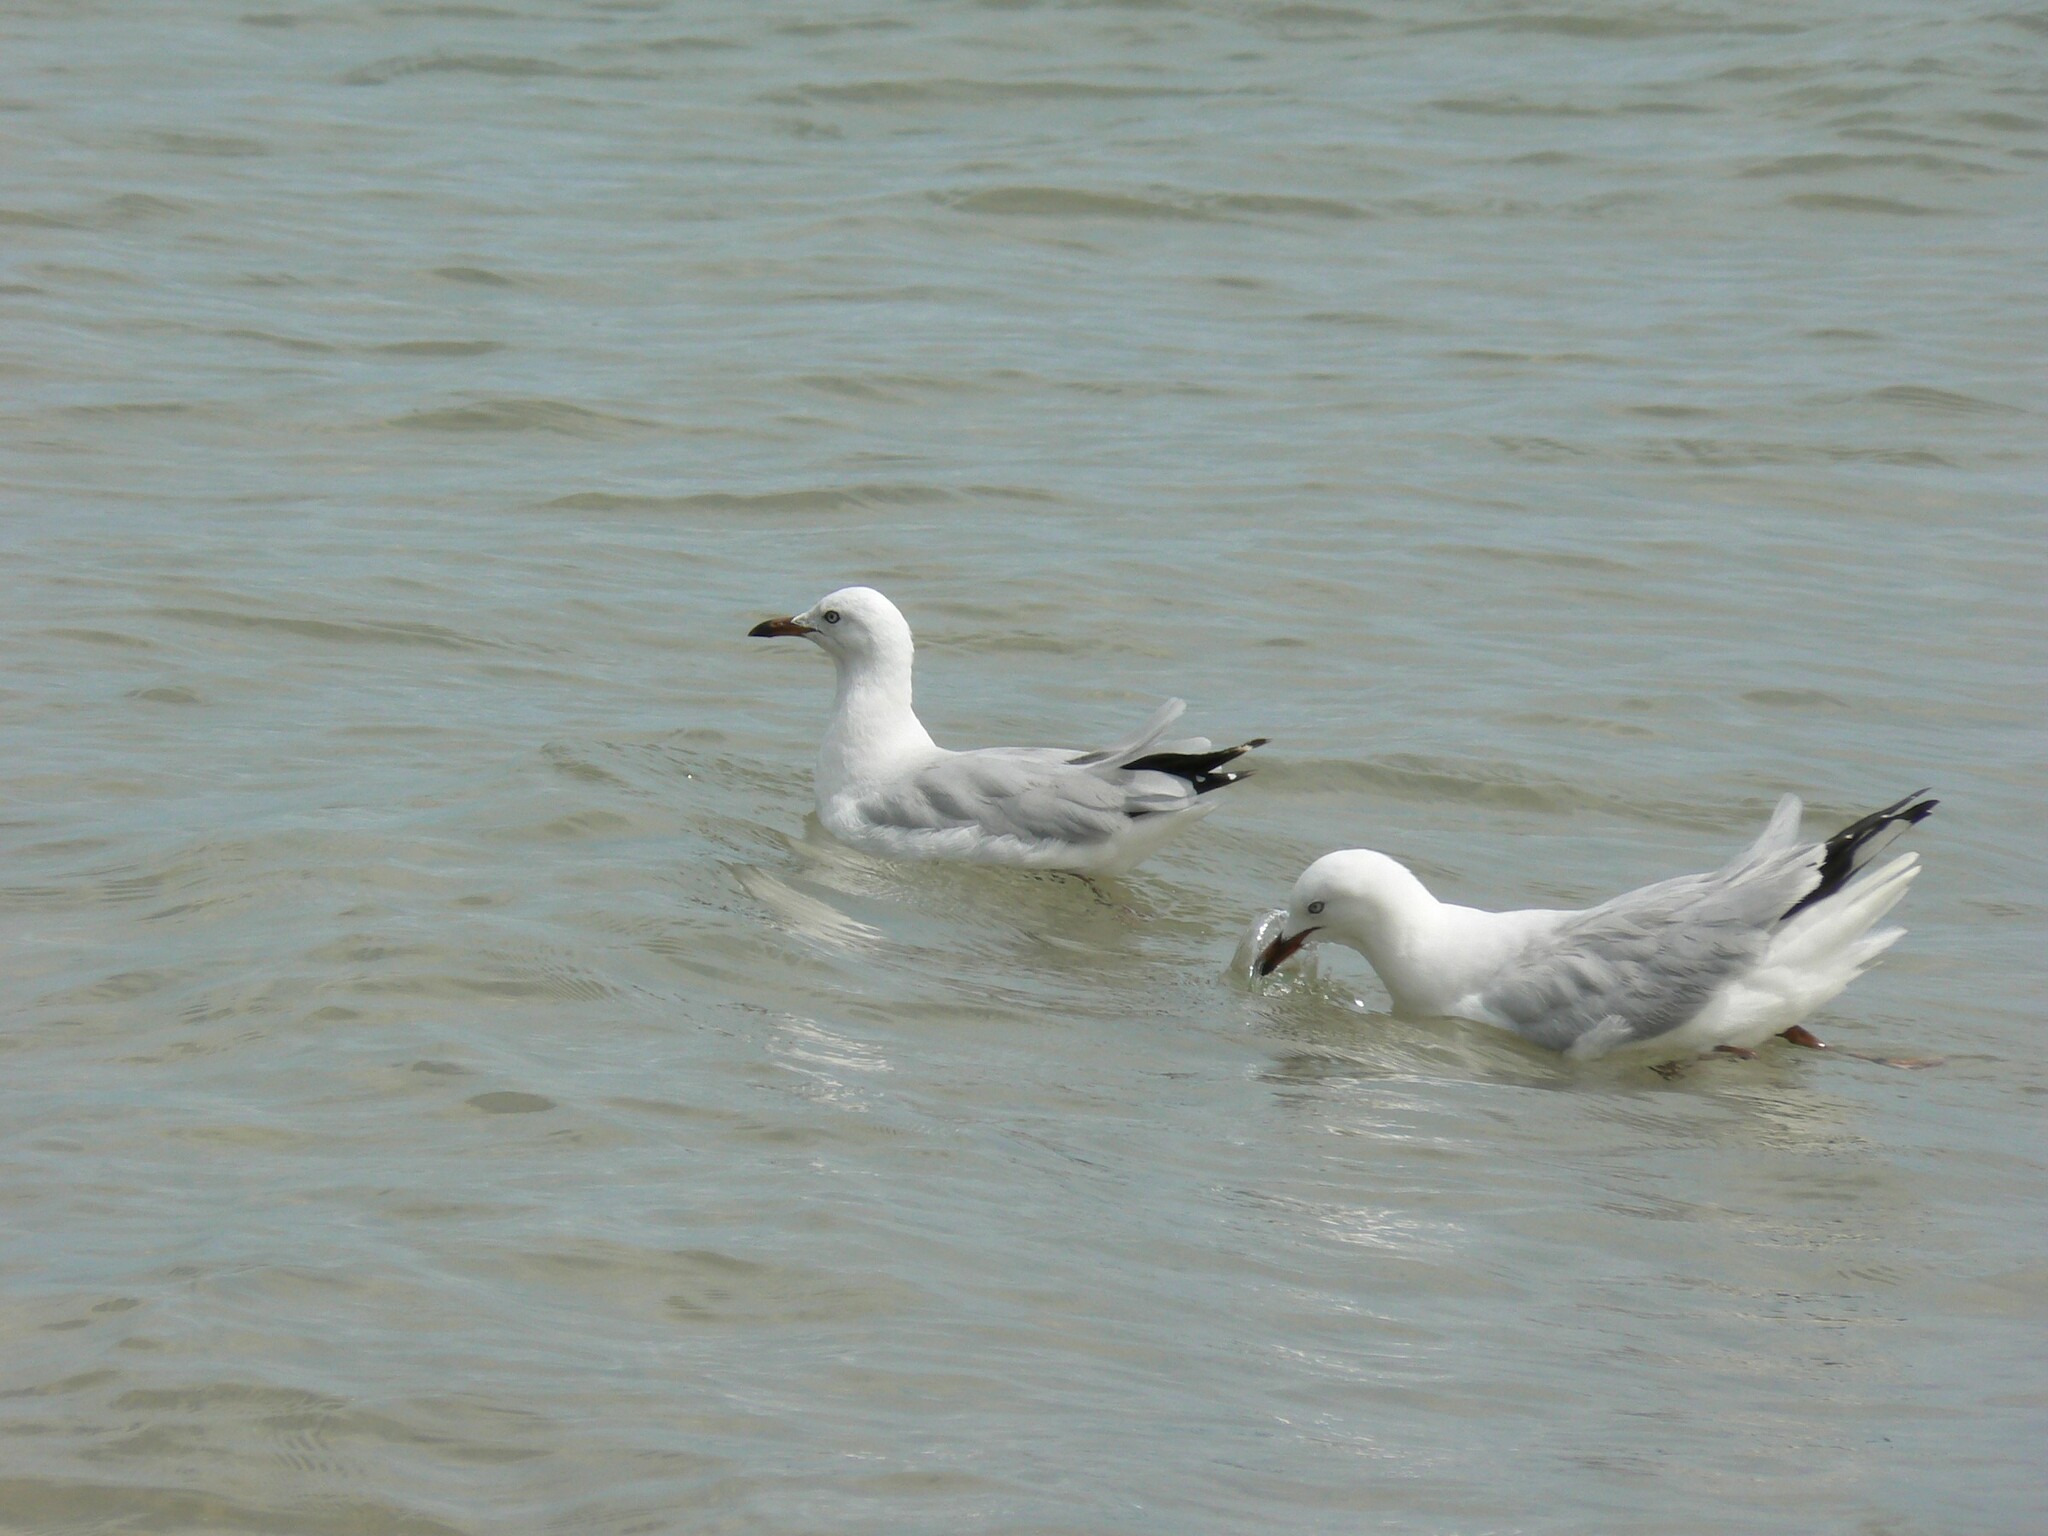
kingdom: Animalia
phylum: Chordata
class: Aves
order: Charadriiformes
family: Laridae
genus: Chroicocephalus
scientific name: Chroicocephalus novaehollandiae
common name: Silver gull
